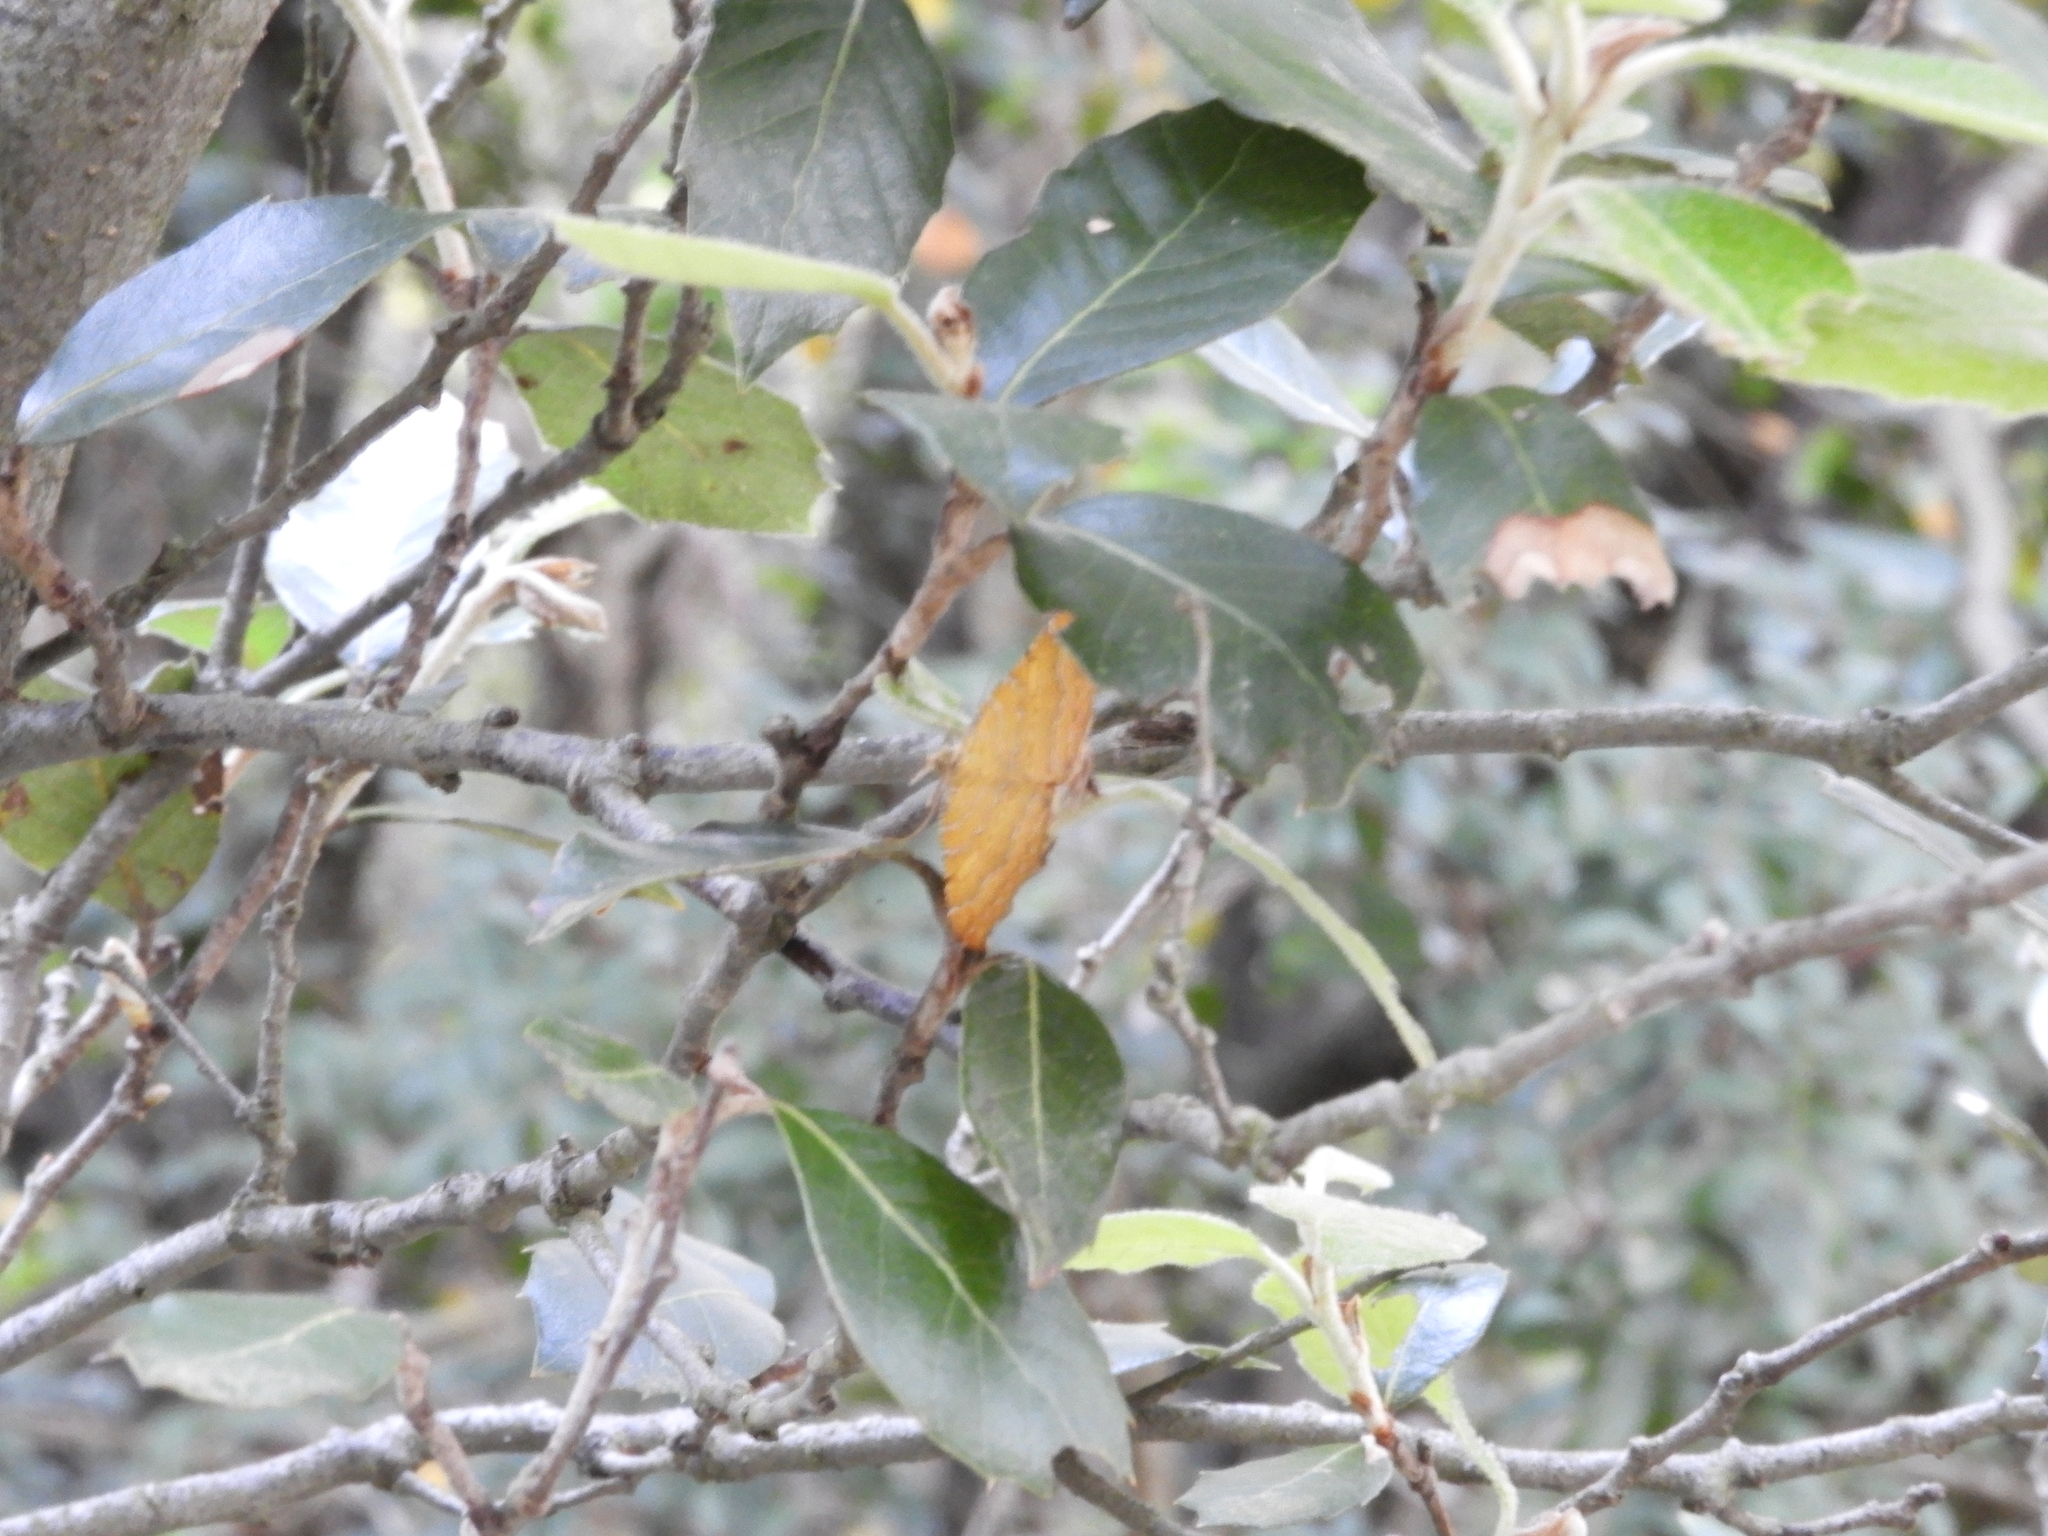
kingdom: Animalia
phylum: Arthropoda
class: Insecta
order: Lepidoptera
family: Geometridae
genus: Camptogramma
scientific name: Camptogramma bilineata
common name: Yellow shell
